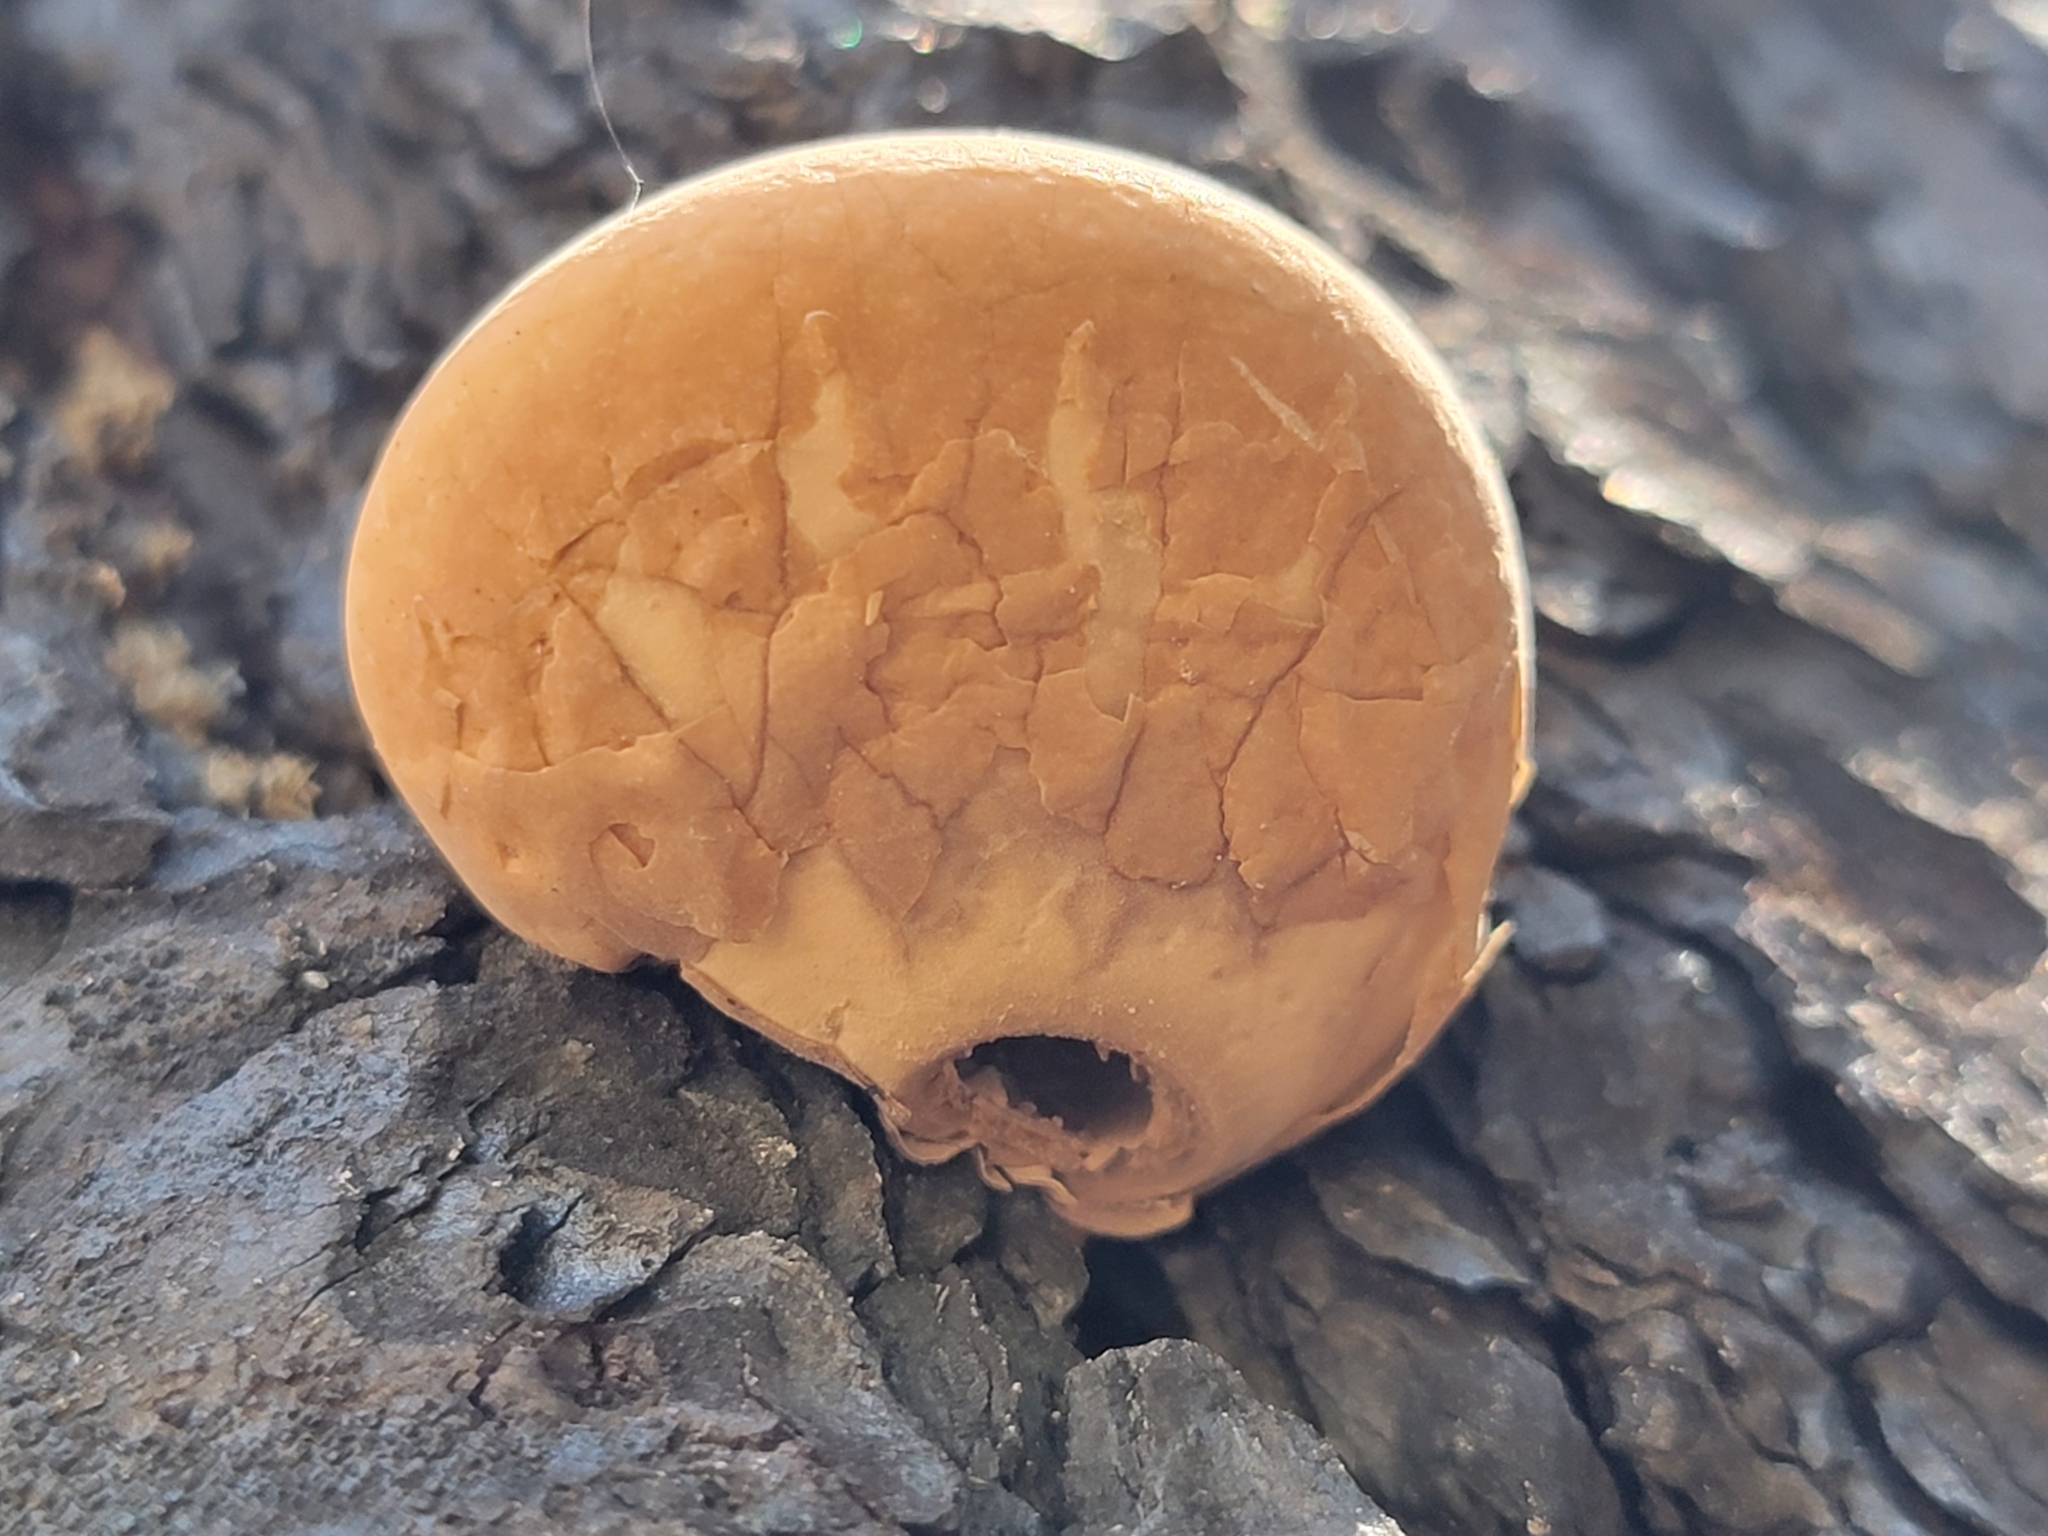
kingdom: Fungi
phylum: Basidiomycota
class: Agaricomycetes
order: Polyporales
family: Polyporaceae
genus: Cryptoporus
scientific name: Cryptoporus volvatus
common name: Veiled polypore
